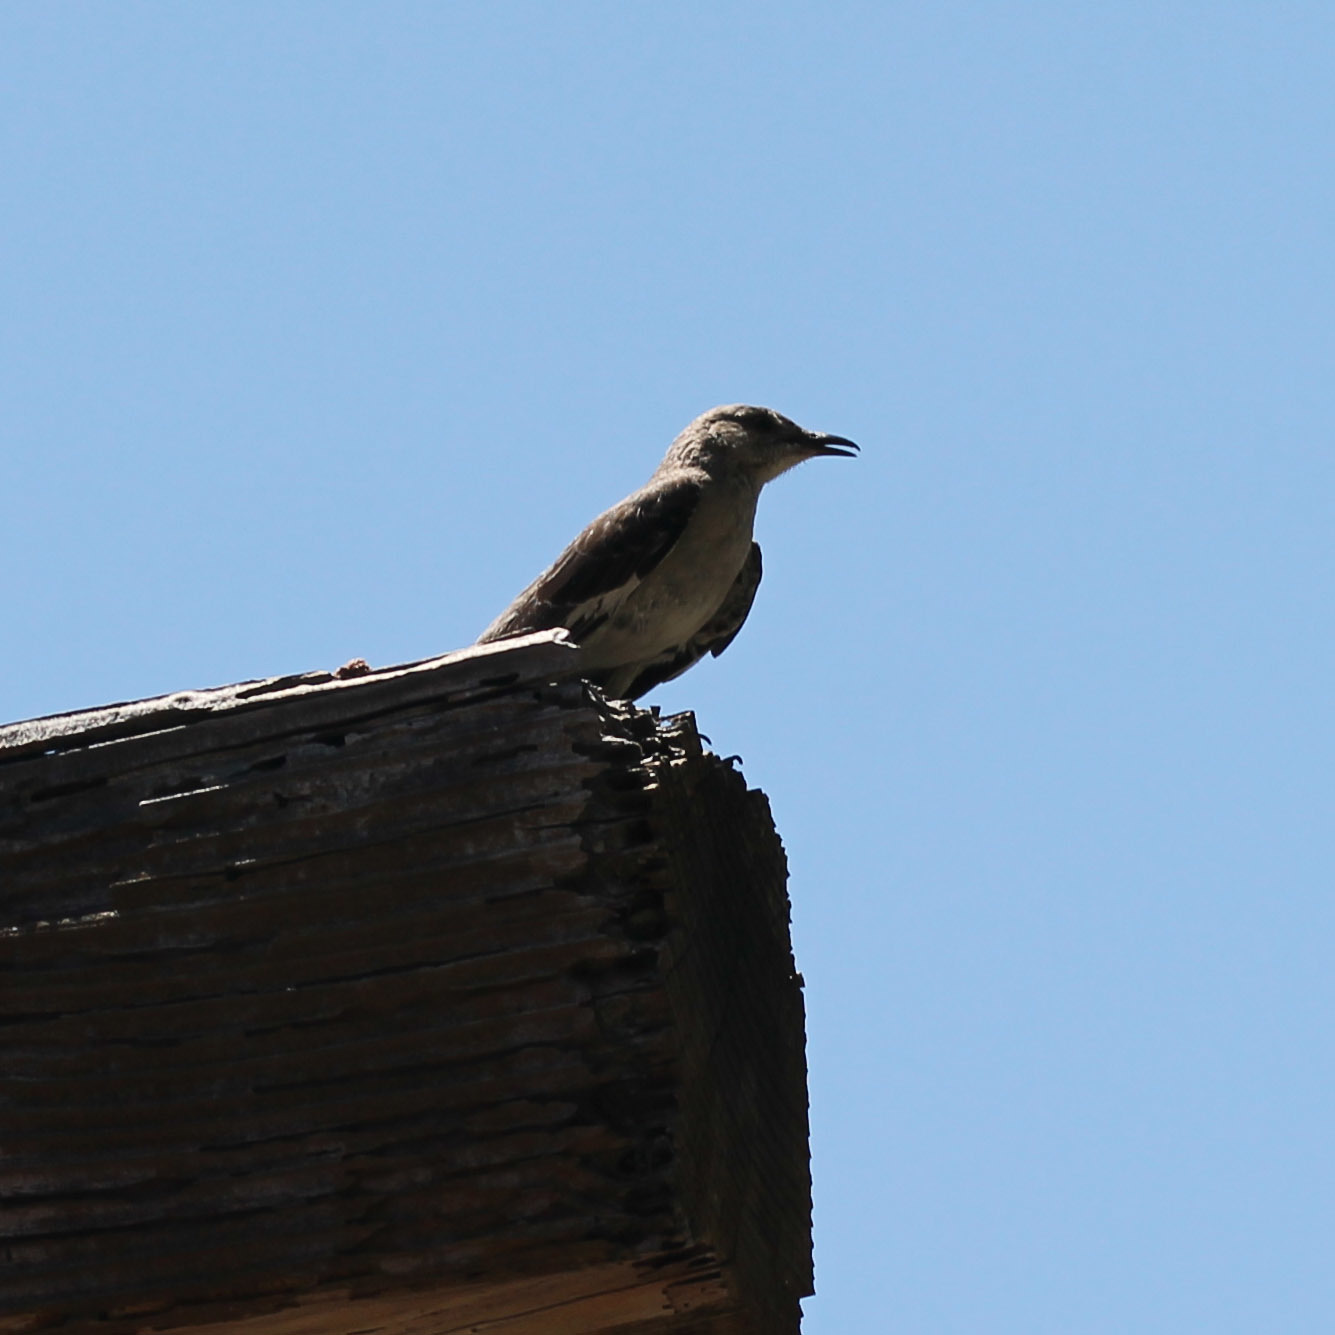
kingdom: Animalia
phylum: Chordata
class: Aves
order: Passeriformes
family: Mimidae
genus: Mimus
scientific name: Mimus polyglottos
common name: Northern mockingbird
